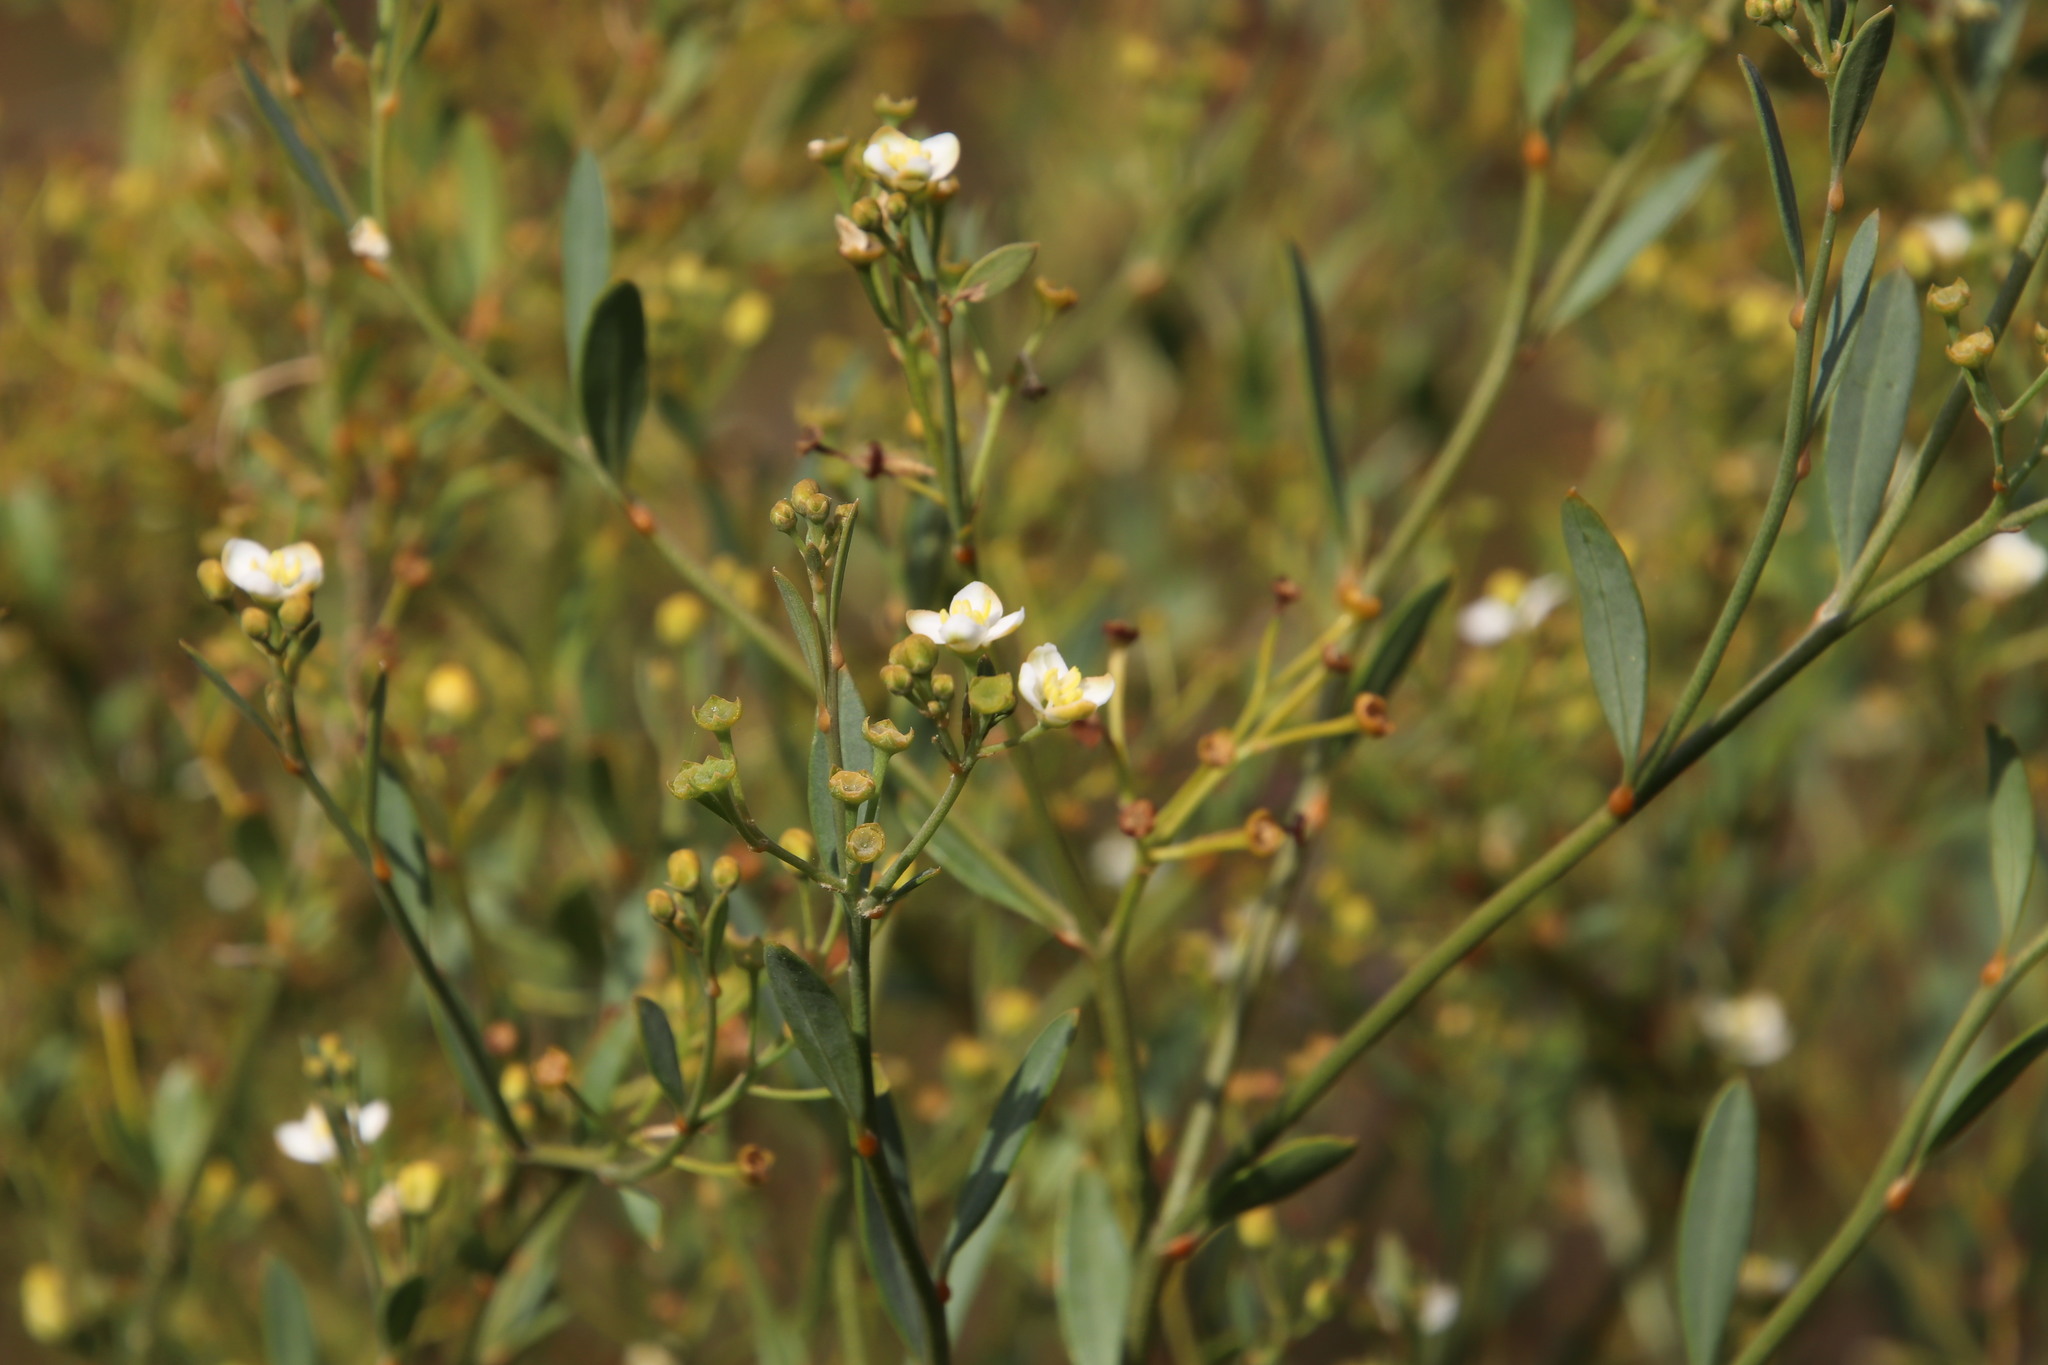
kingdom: Plantae
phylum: Tracheophyta
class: Magnoliopsida
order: Solanales
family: Montiniaceae
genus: Montinia
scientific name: Montinia caryophyllacea
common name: Wild clove-bush
